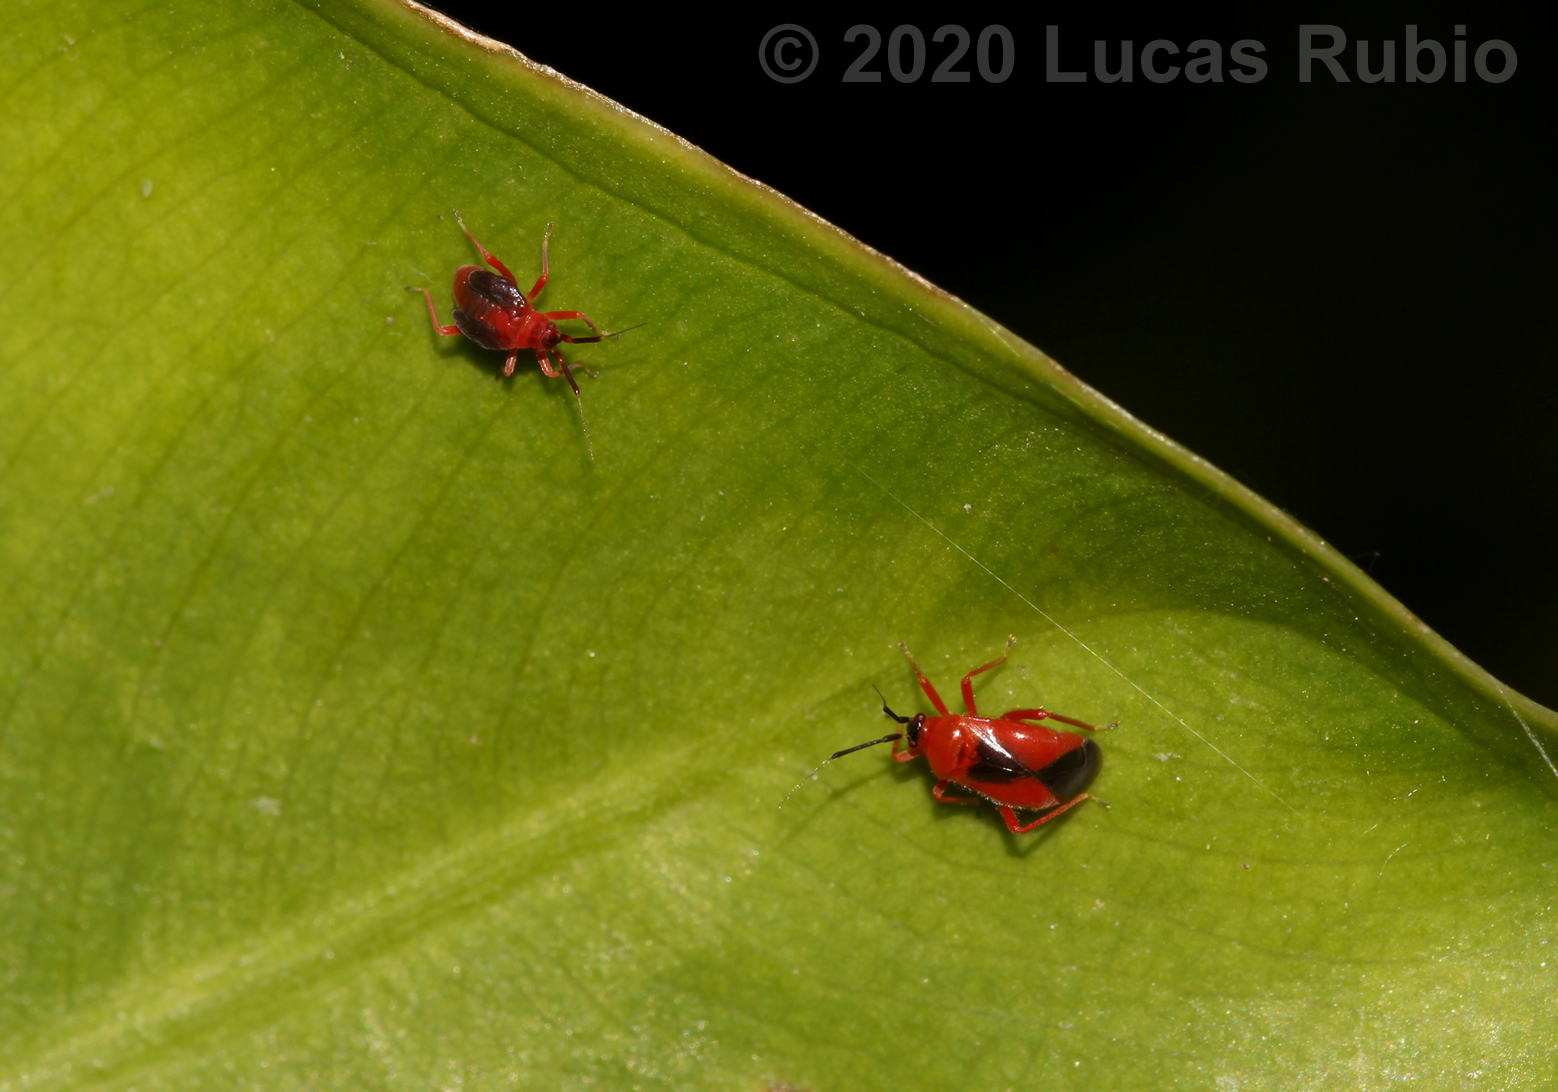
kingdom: Animalia
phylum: Arthropoda
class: Insecta
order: Hemiptera
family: Miridae
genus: Pachymerocerus
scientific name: Pachymerocerus erythronotus
